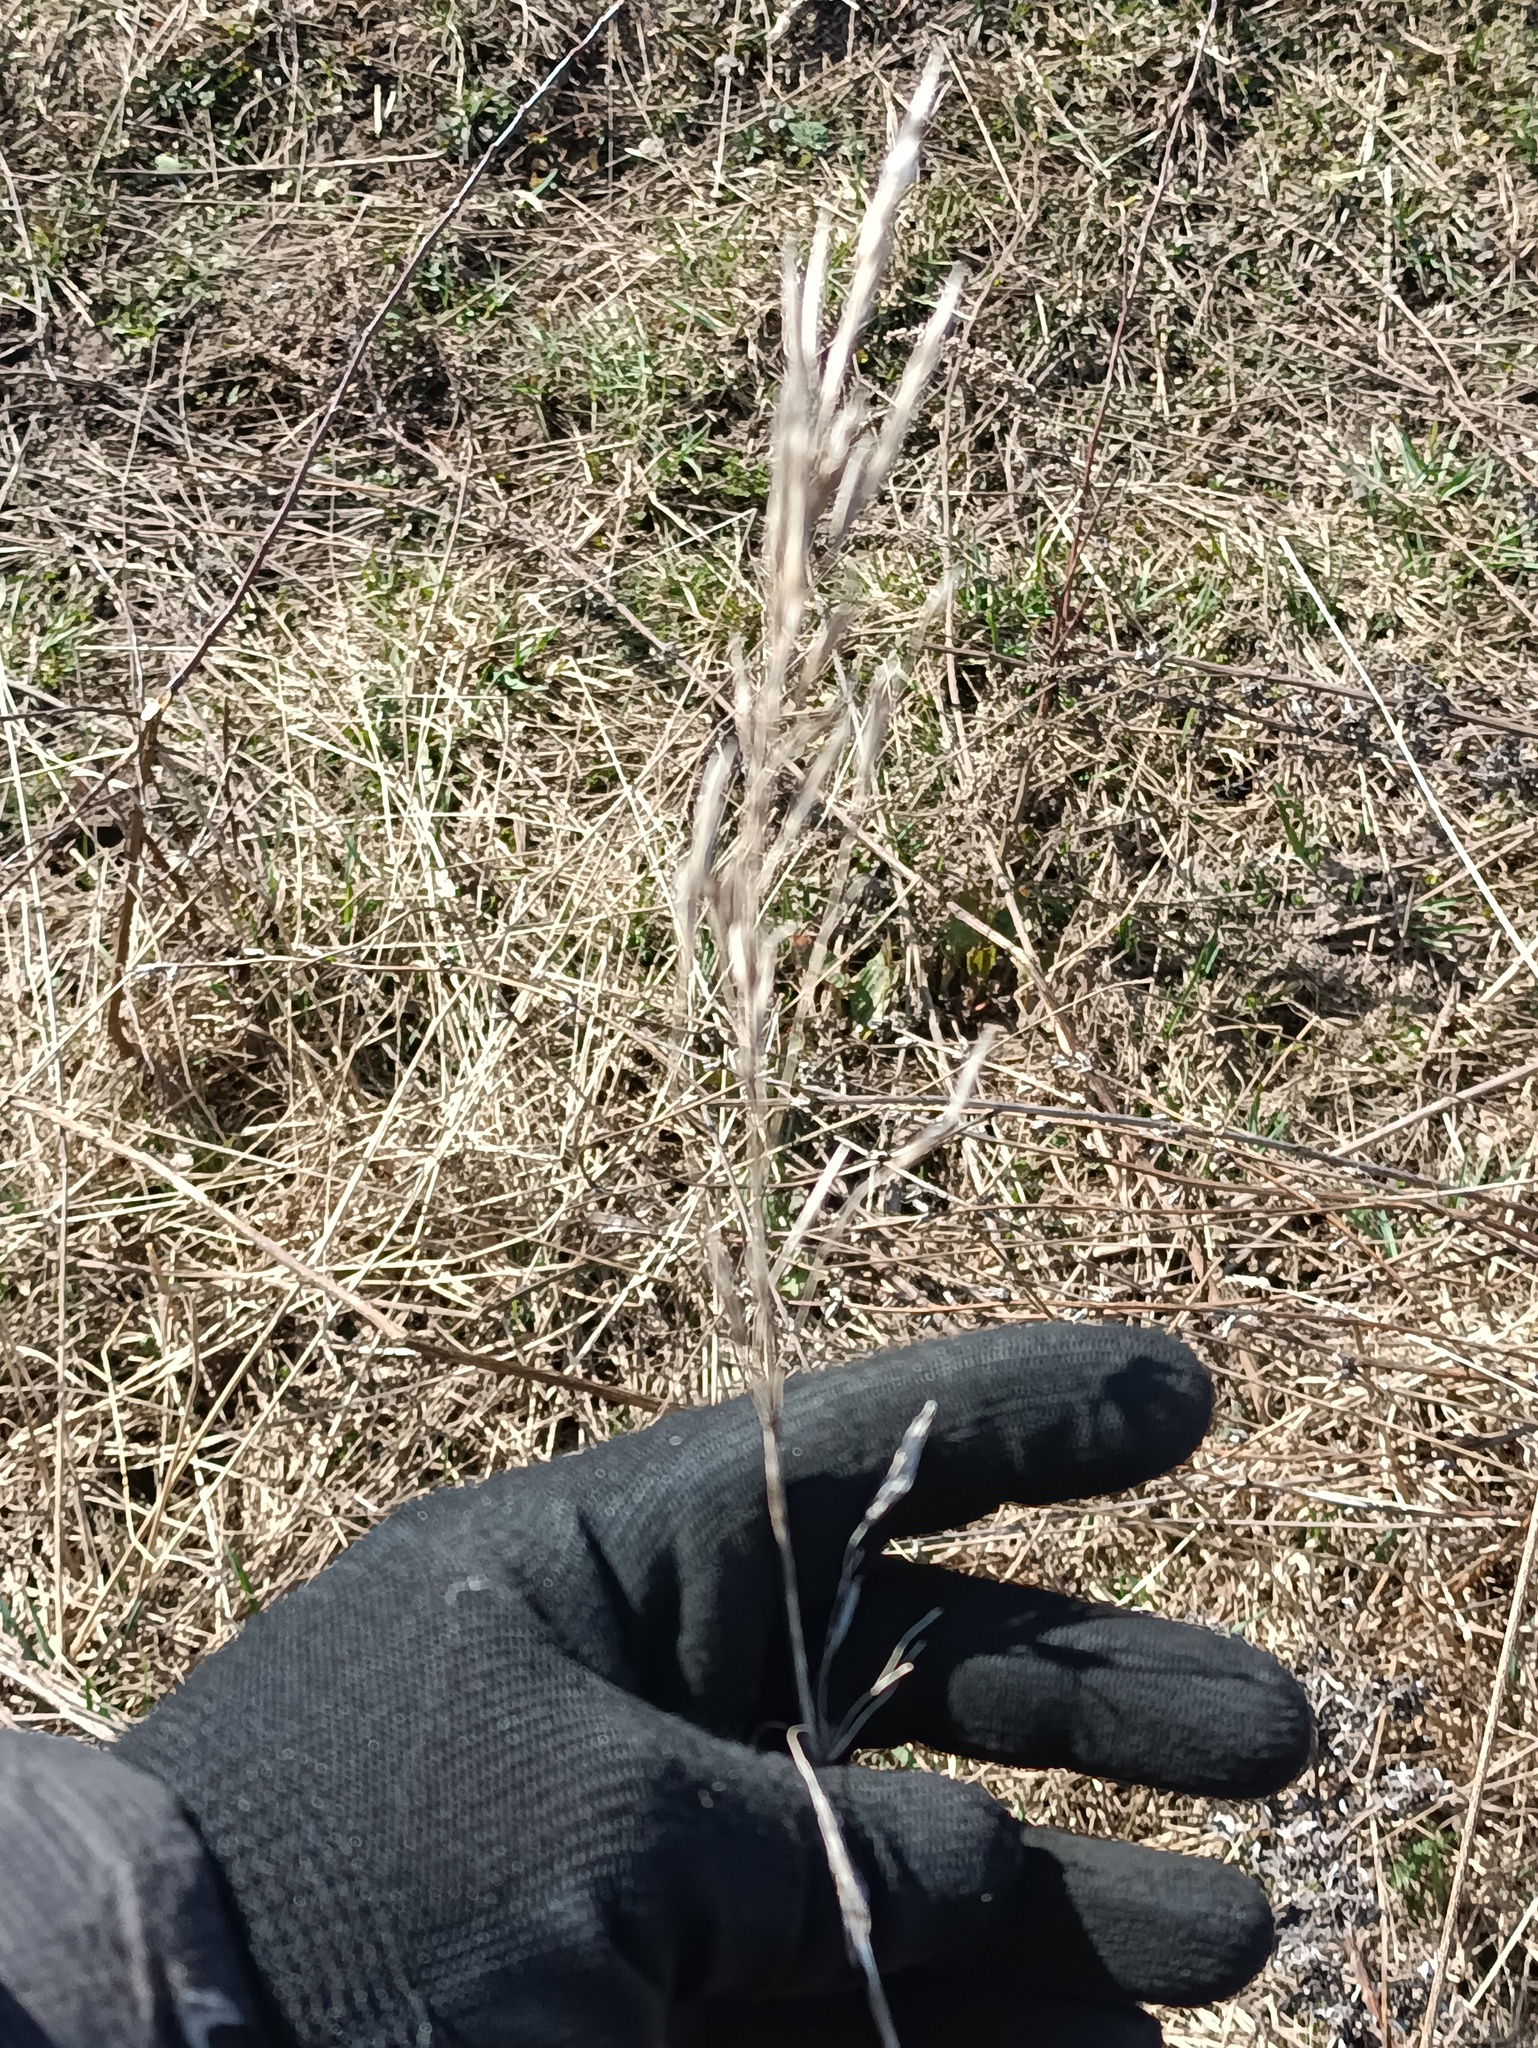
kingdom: Plantae
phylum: Tracheophyta
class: Liliopsida
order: Poales
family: Poaceae
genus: Bromus
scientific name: Bromus inermis
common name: Smooth brome
